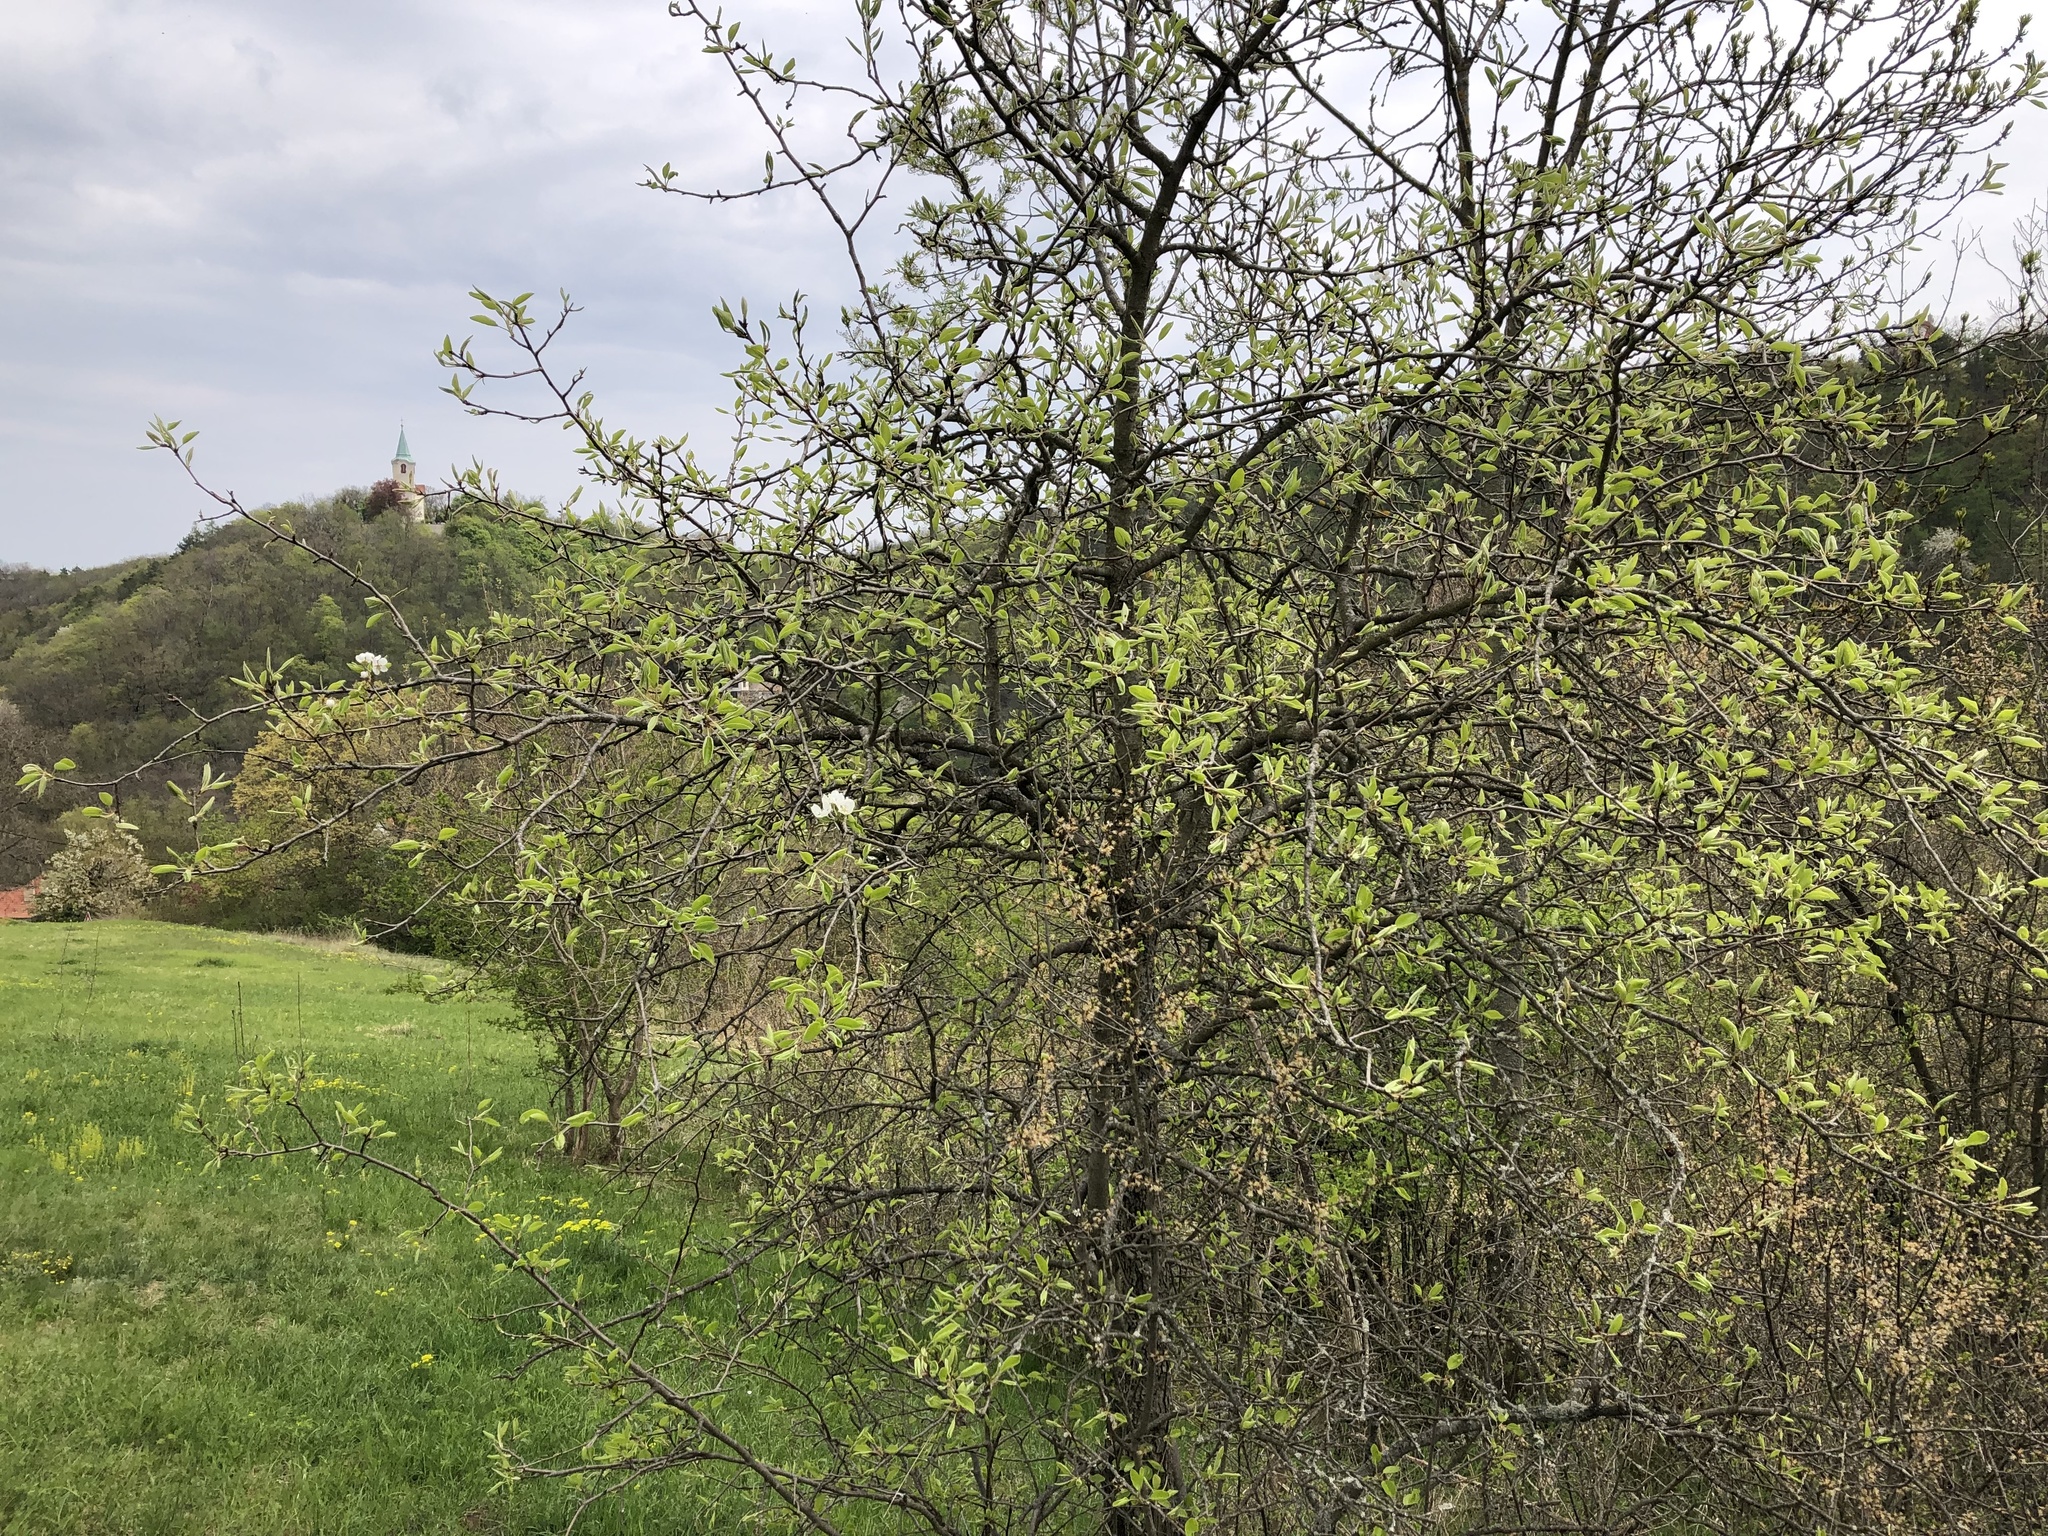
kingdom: Plantae
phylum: Tracheophyta
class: Magnoliopsida
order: Rosales
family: Rosaceae
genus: Pyrus
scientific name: Pyrus communis
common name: Pear
